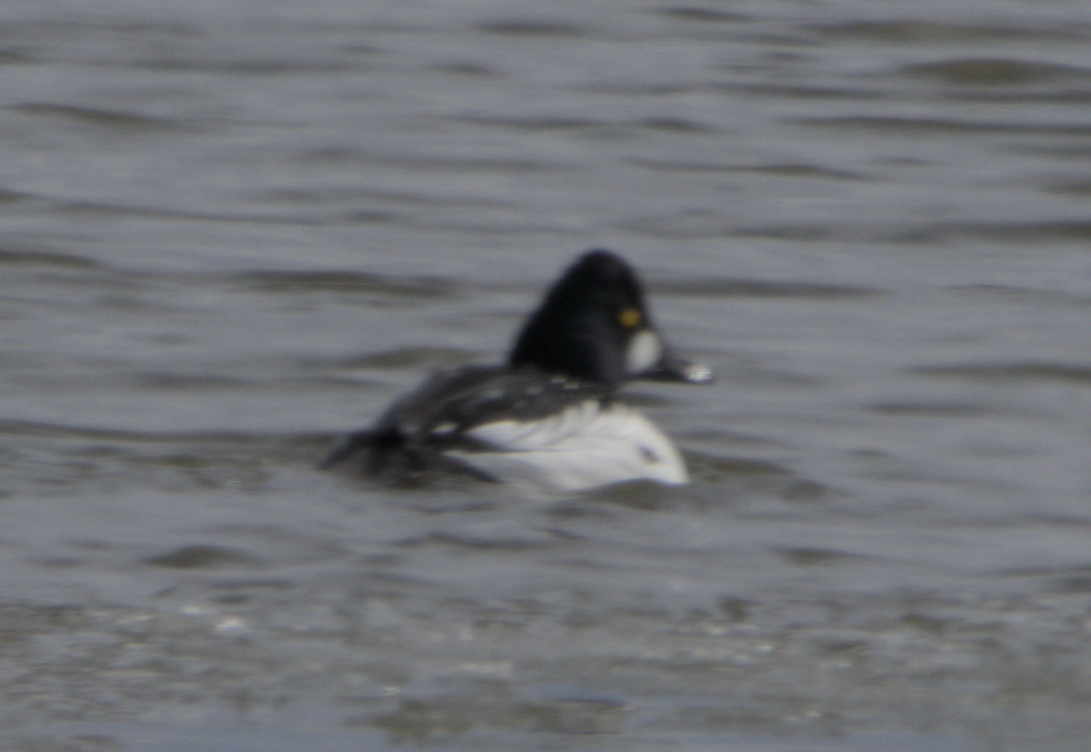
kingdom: Animalia
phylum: Chordata
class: Aves
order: Anseriformes
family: Anatidae
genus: Bucephala
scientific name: Bucephala clangula
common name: Common goldeneye
